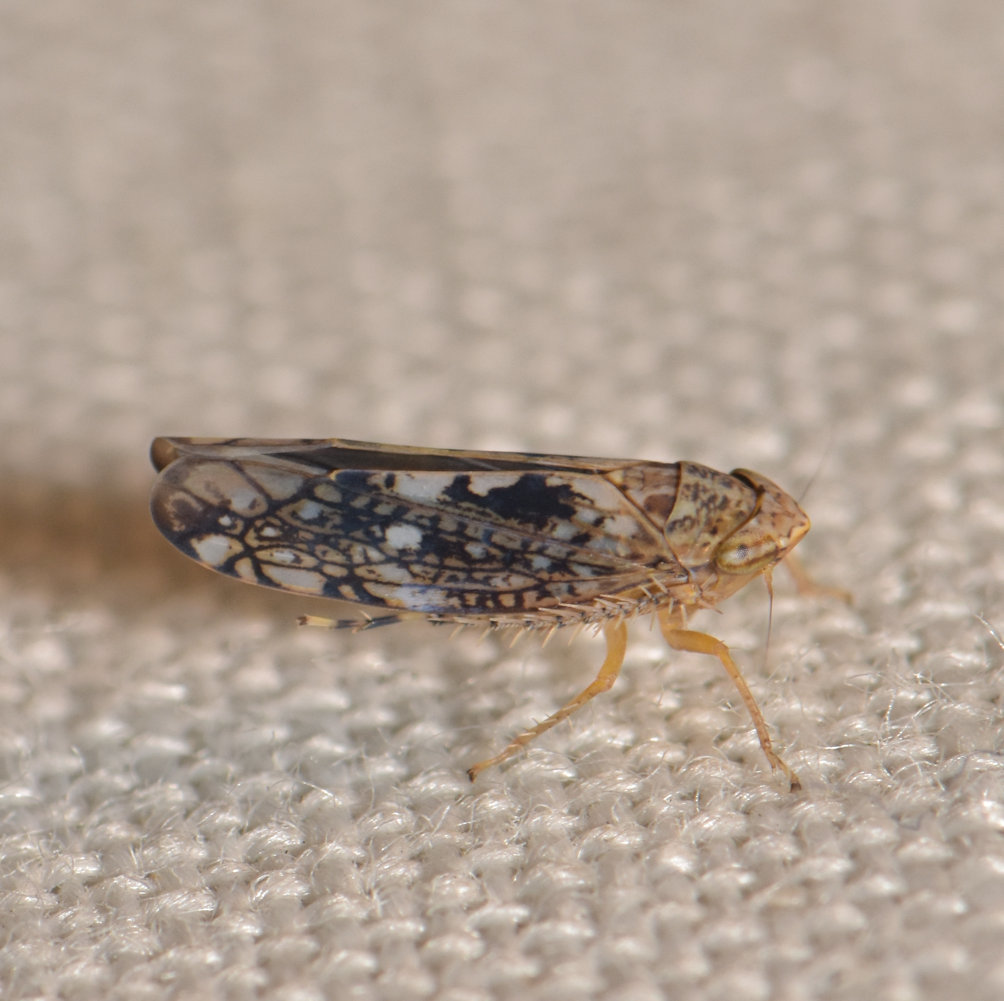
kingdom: Animalia
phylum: Arthropoda
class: Insecta
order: Hemiptera
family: Cicadellidae
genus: Prescottia
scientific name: Prescottia lobata
